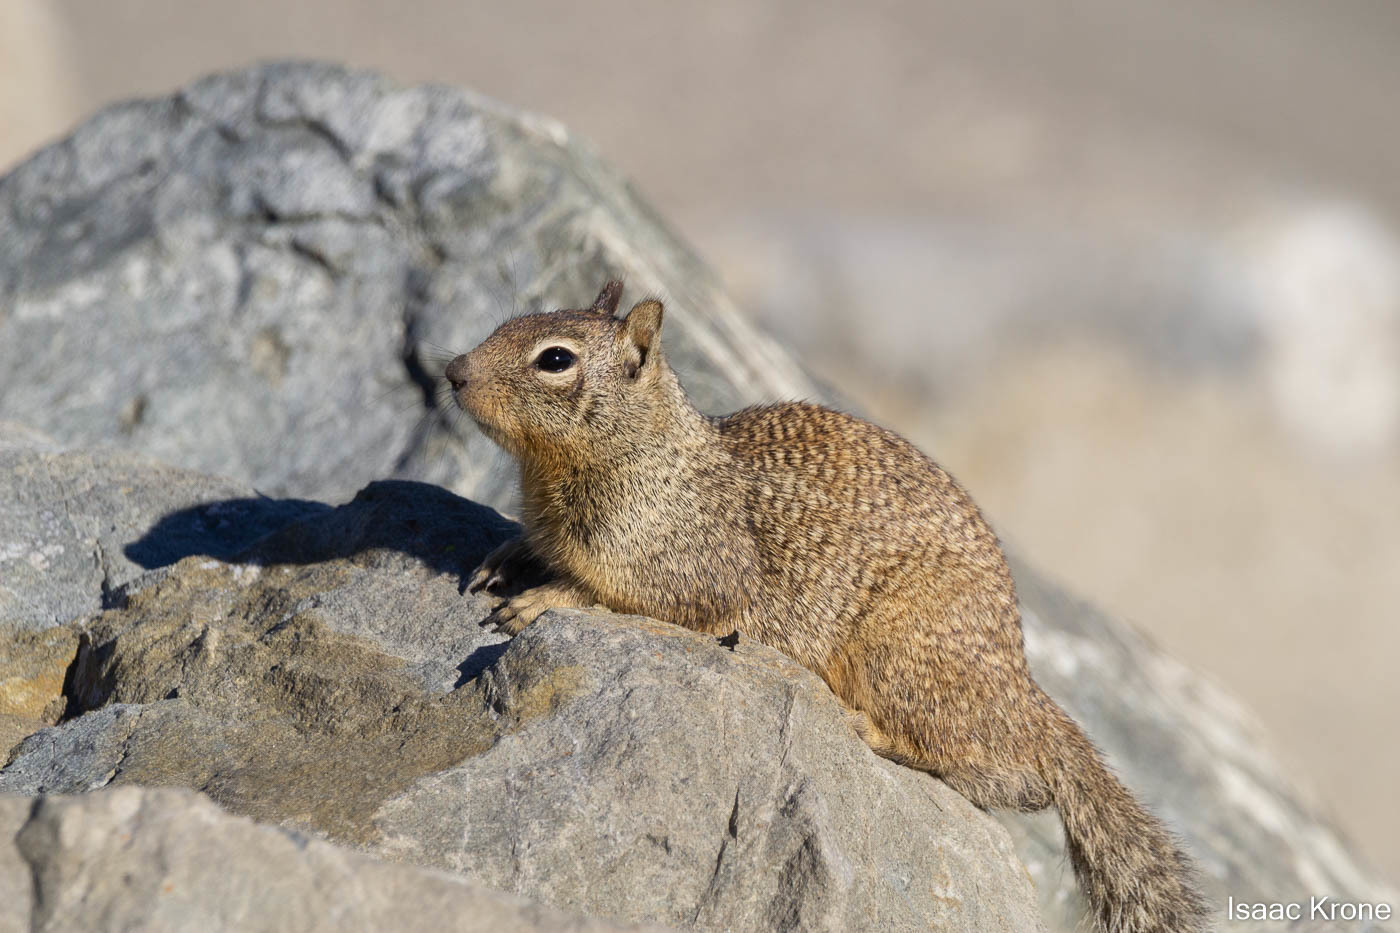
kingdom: Animalia
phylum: Chordata
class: Mammalia
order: Rodentia
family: Sciuridae
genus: Otospermophilus
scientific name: Otospermophilus beecheyi
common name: California ground squirrel
